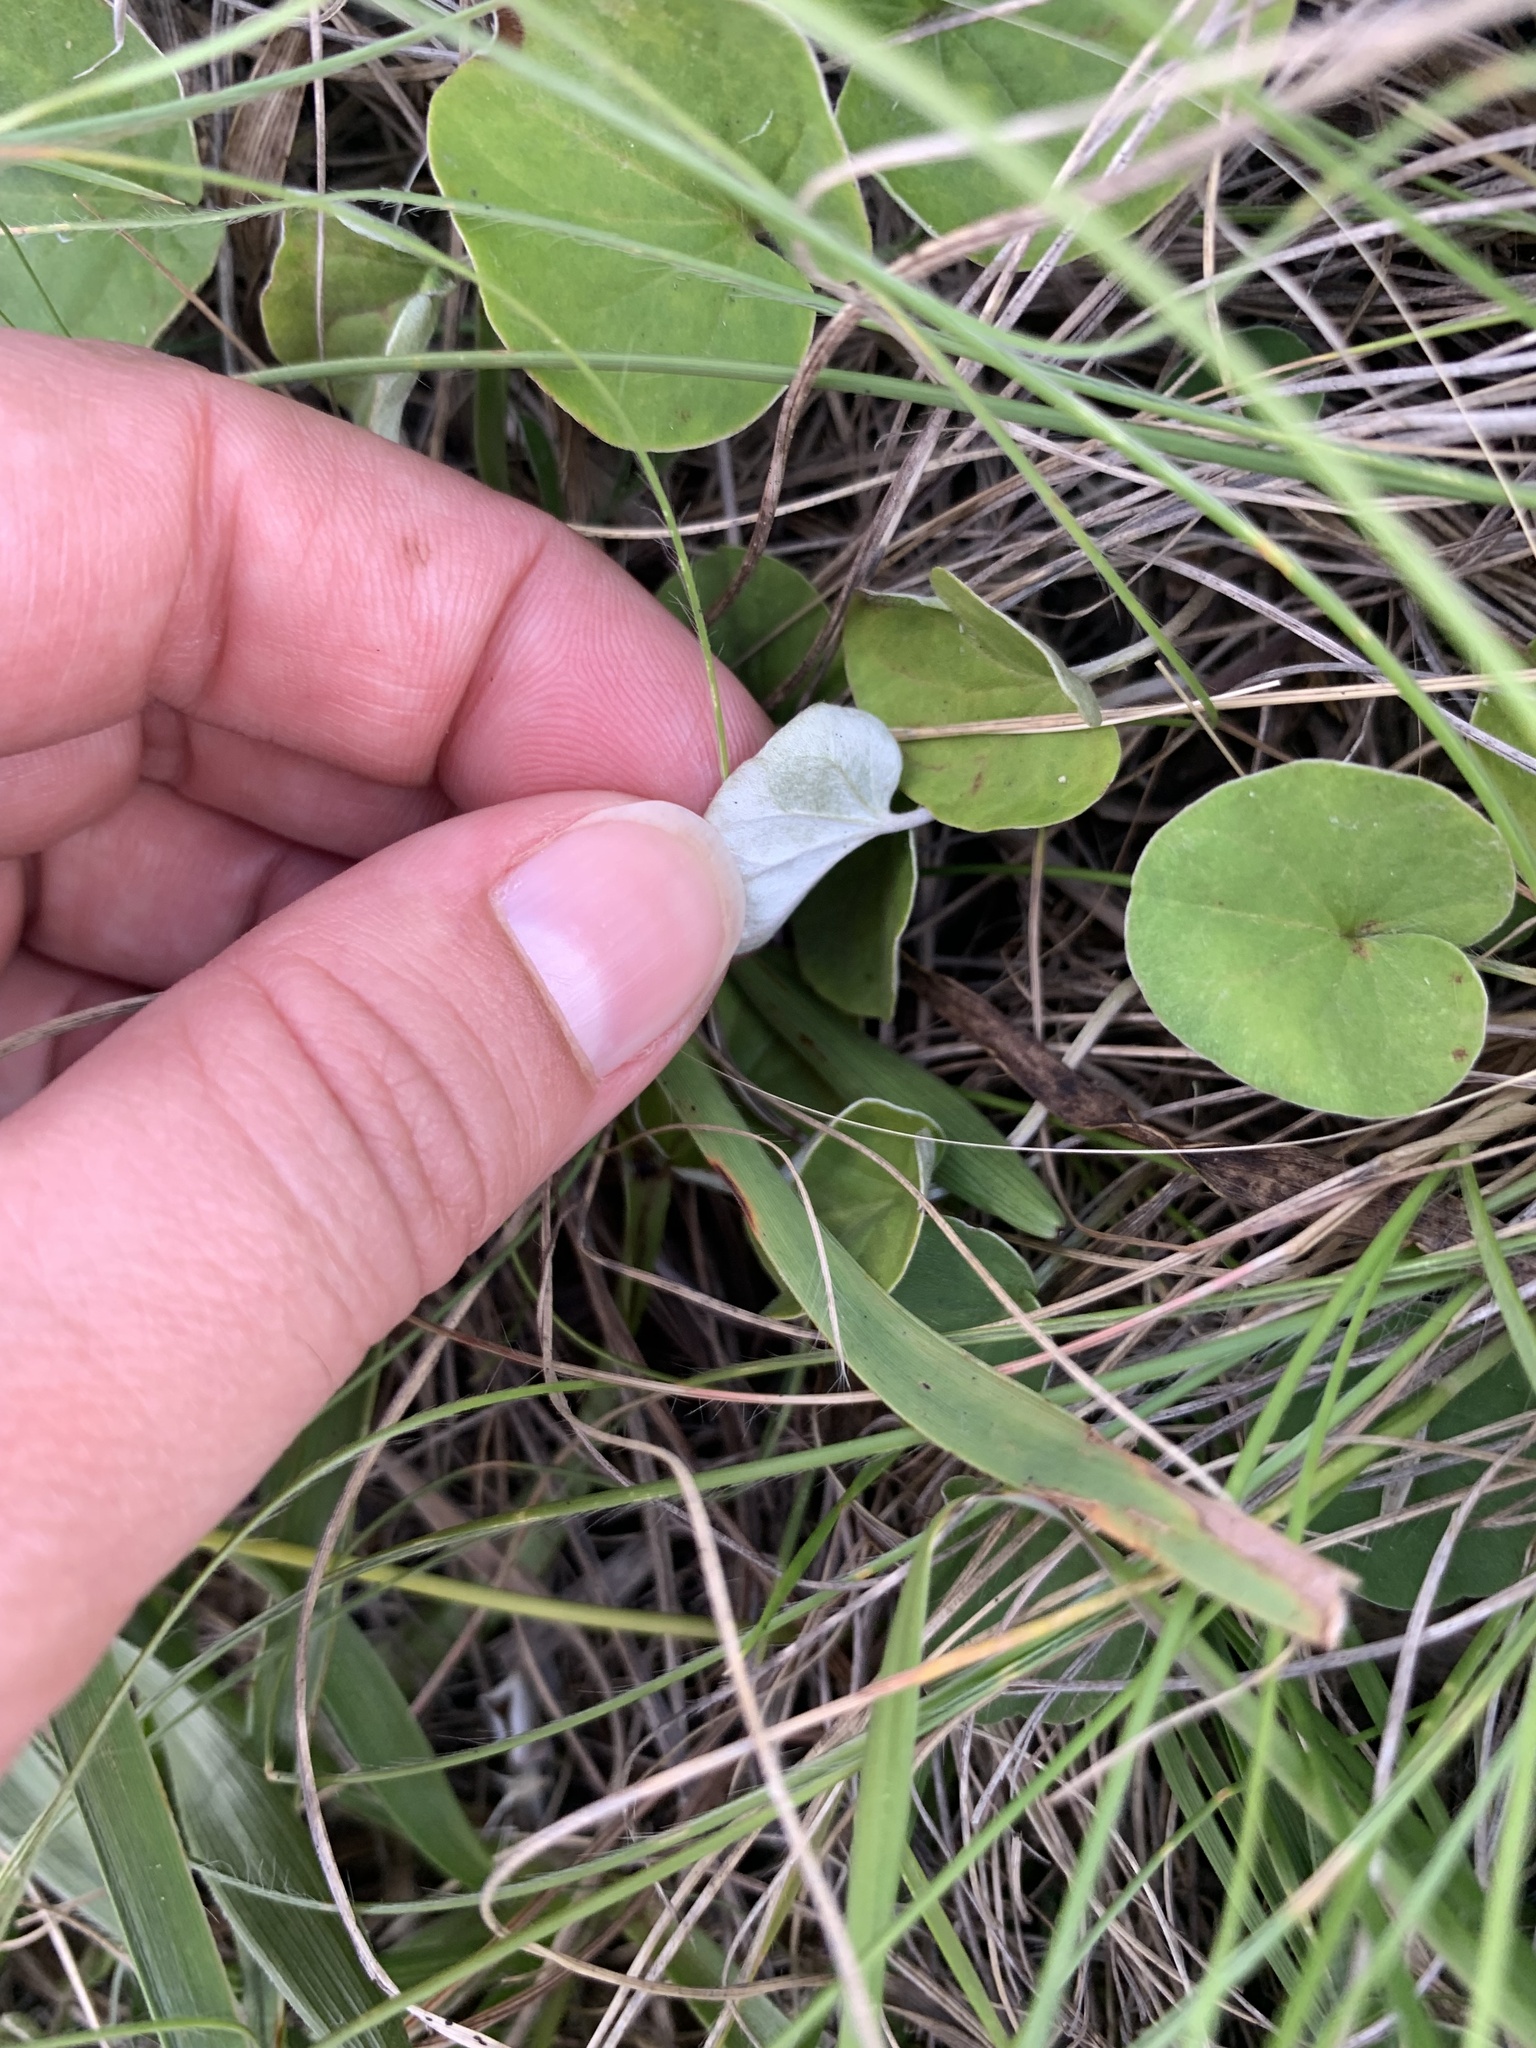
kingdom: Plantae
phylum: Tracheophyta
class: Magnoliopsida
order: Solanales
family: Convolvulaceae
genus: Dichondra
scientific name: Dichondra sericea
